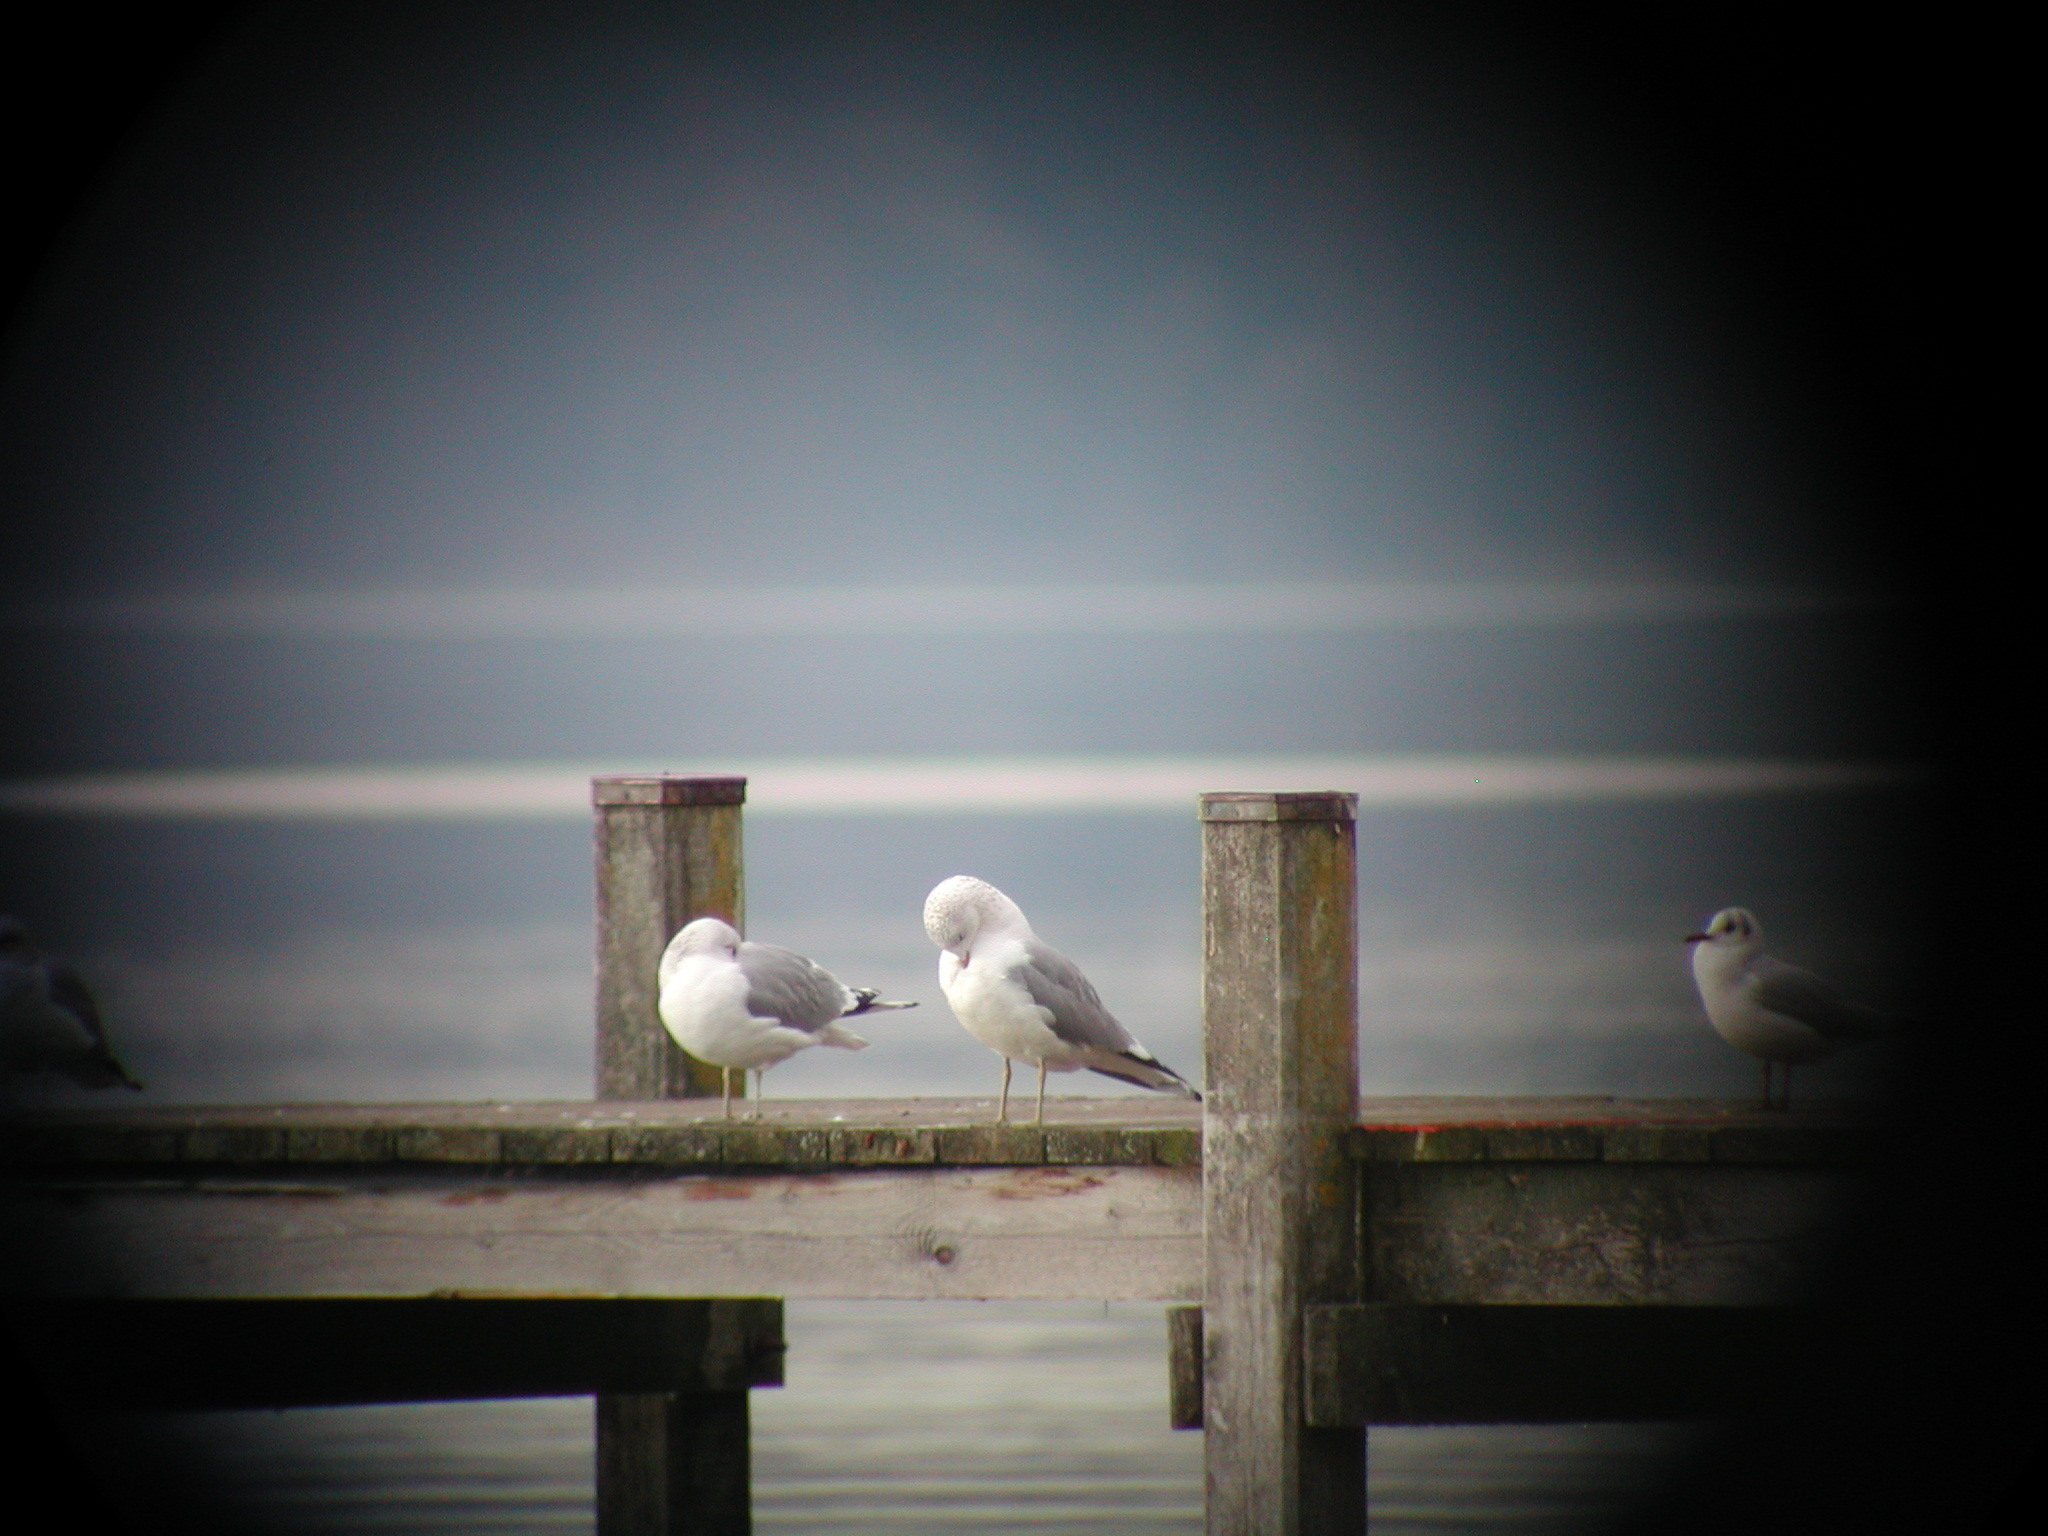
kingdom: Animalia
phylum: Chordata
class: Aves
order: Charadriiformes
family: Laridae
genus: Larus
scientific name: Larus canus
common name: Mew gull
